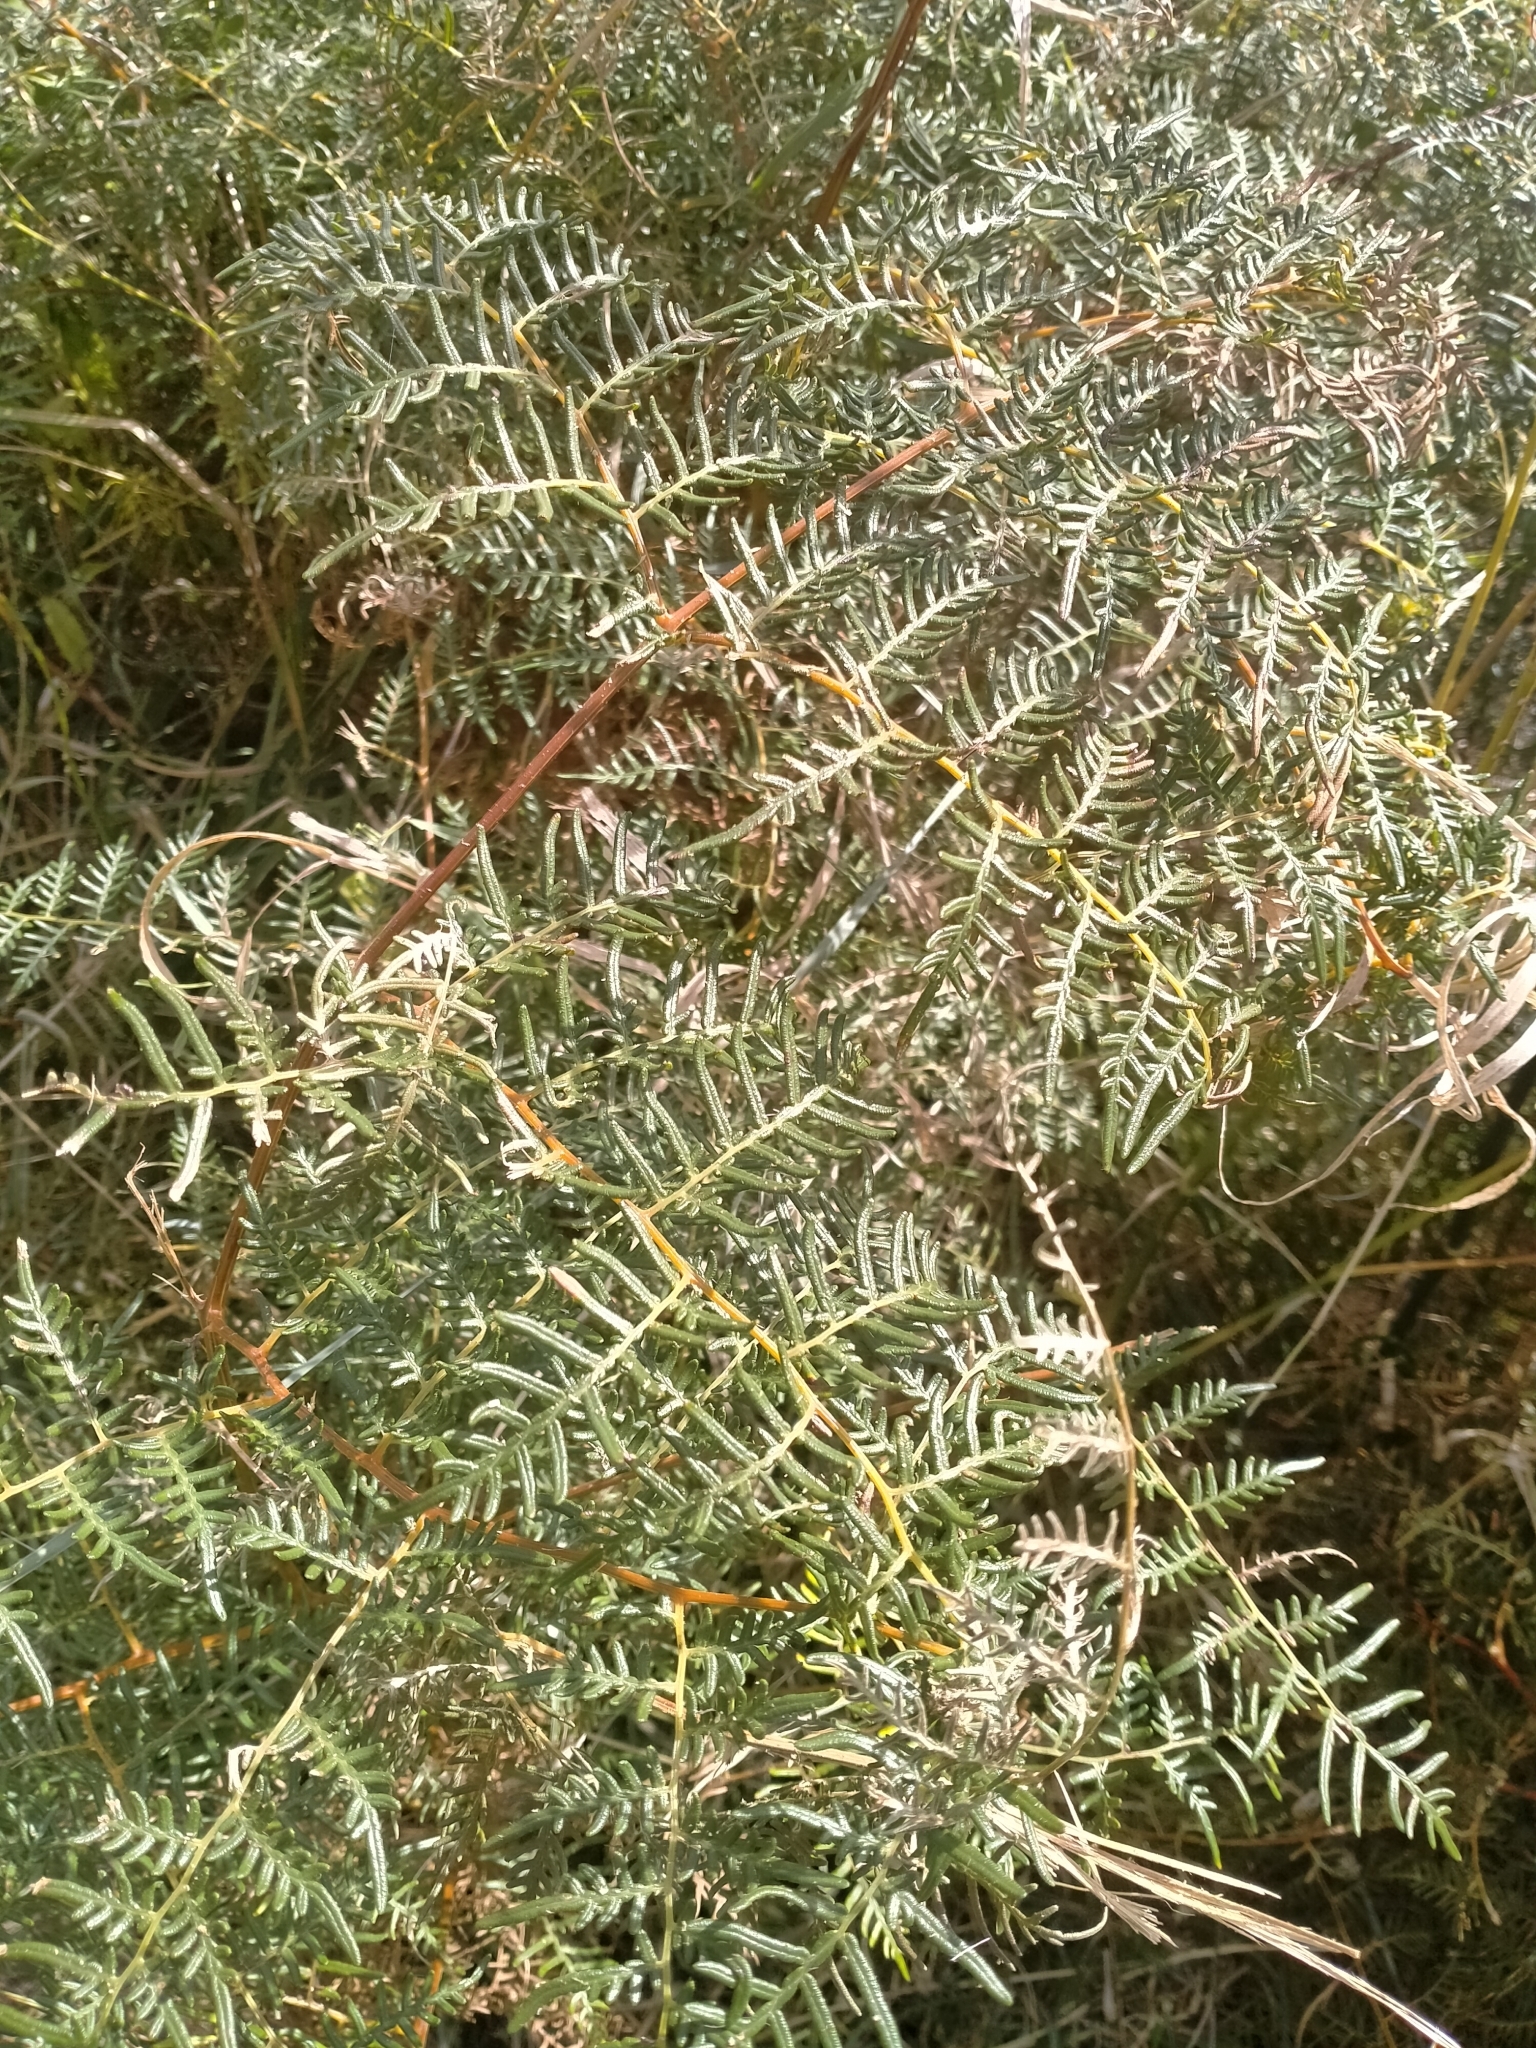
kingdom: Plantae
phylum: Tracheophyta
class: Polypodiopsida
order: Polypodiales
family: Dennstaedtiaceae
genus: Pteridium
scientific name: Pteridium esculentum
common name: Bracken fern
